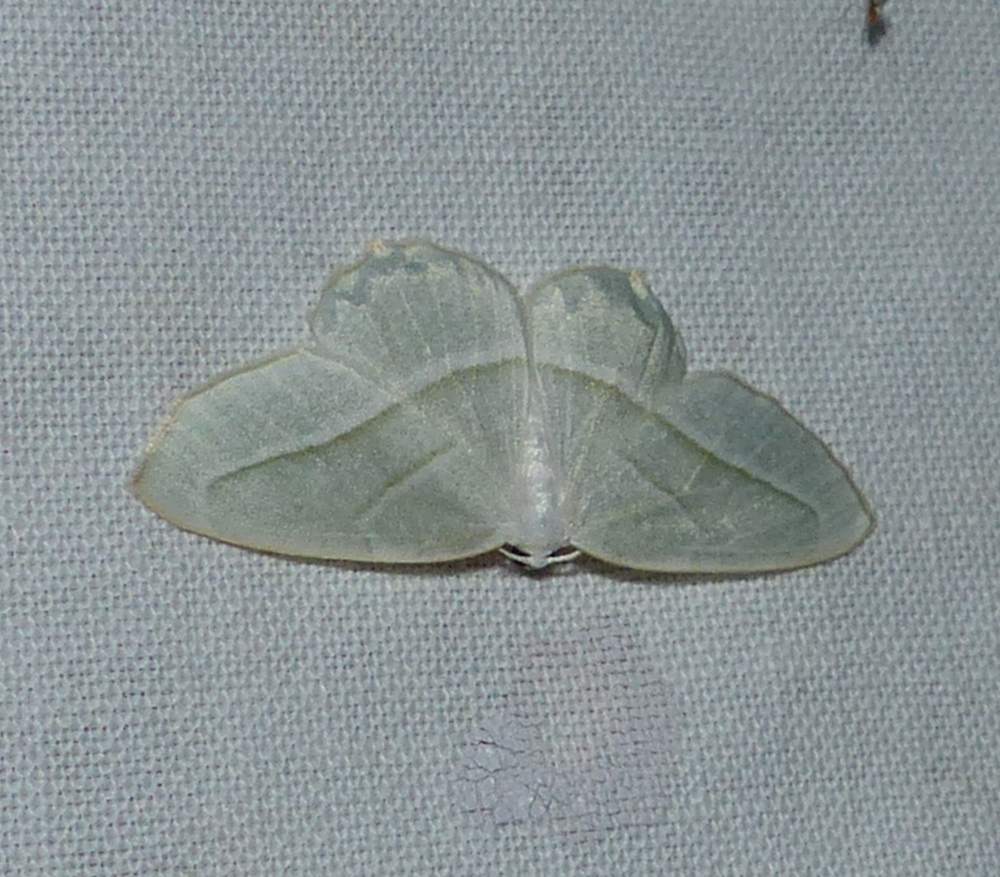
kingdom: Animalia
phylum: Arthropoda
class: Insecta
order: Lepidoptera
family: Geometridae
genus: Campaea
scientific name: Campaea perlata
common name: Fringed looper
